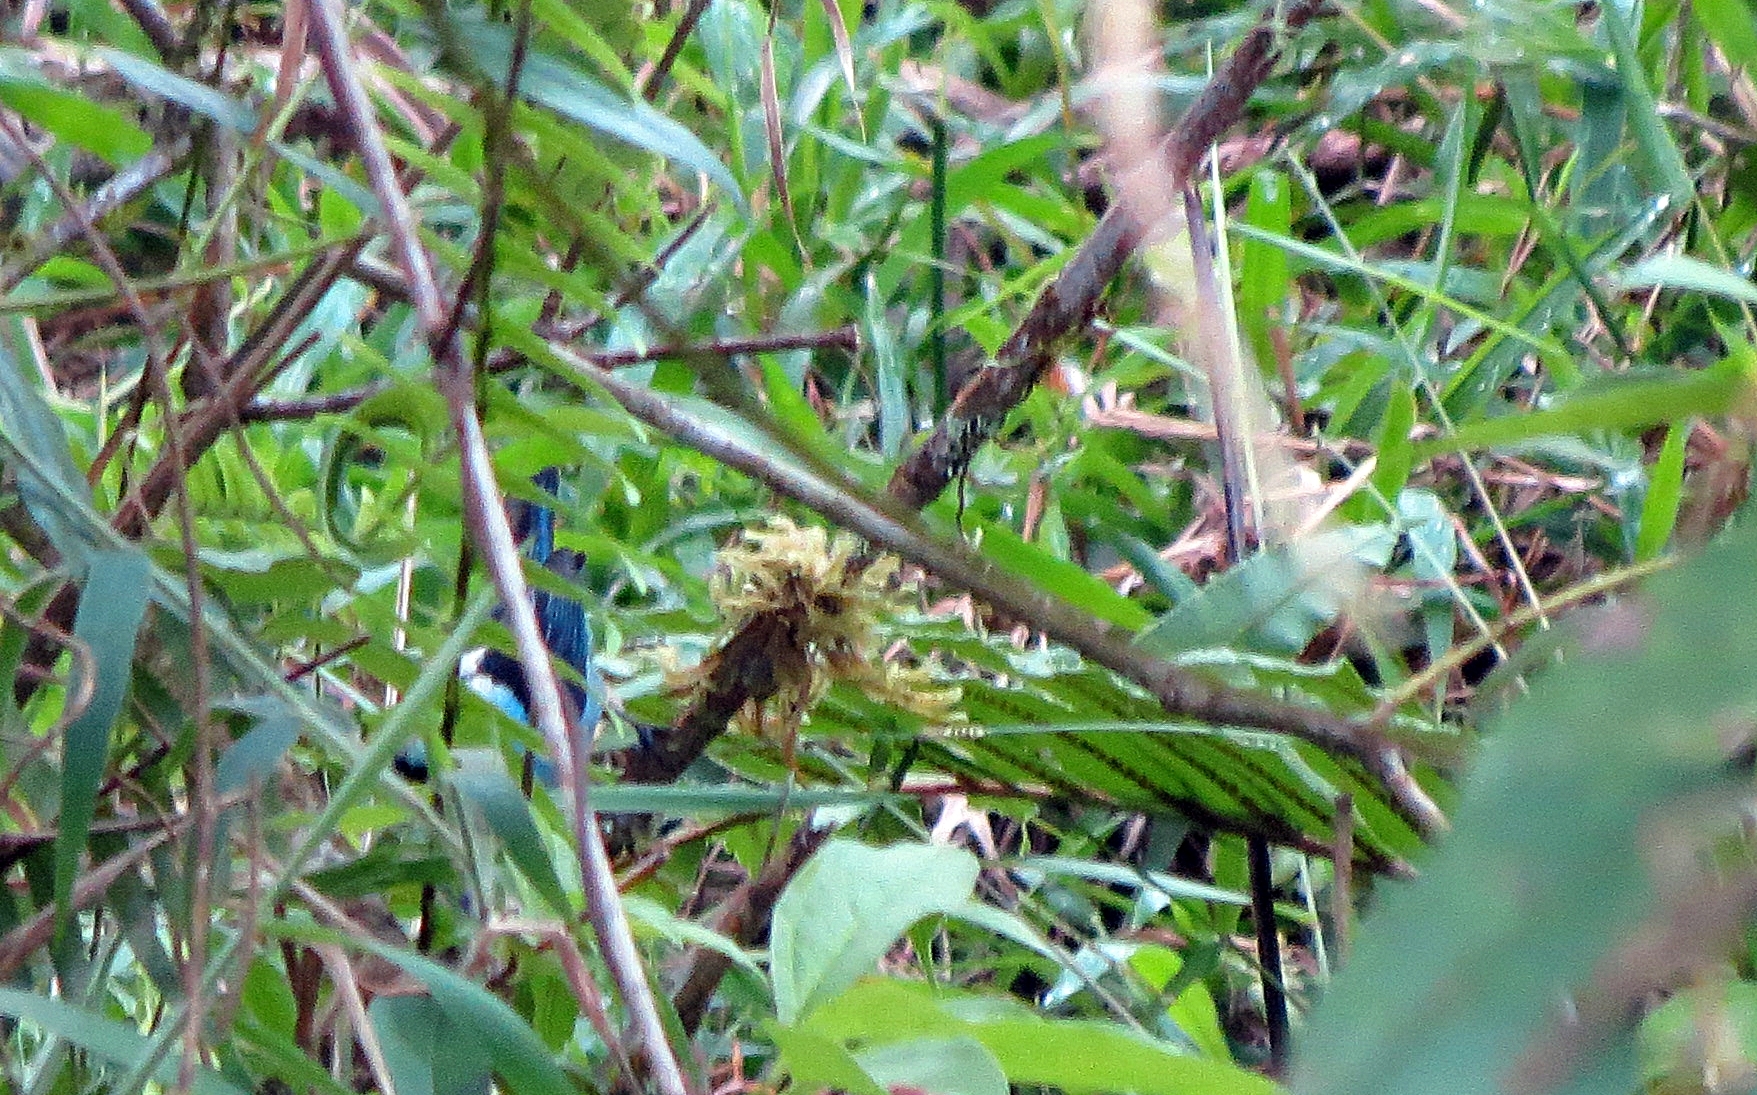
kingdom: Animalia
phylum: Chordata
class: Aves
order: Passeriformes
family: Thraupidae
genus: Tangara
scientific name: Tangara vassorii
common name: Blue-and-black tanager
